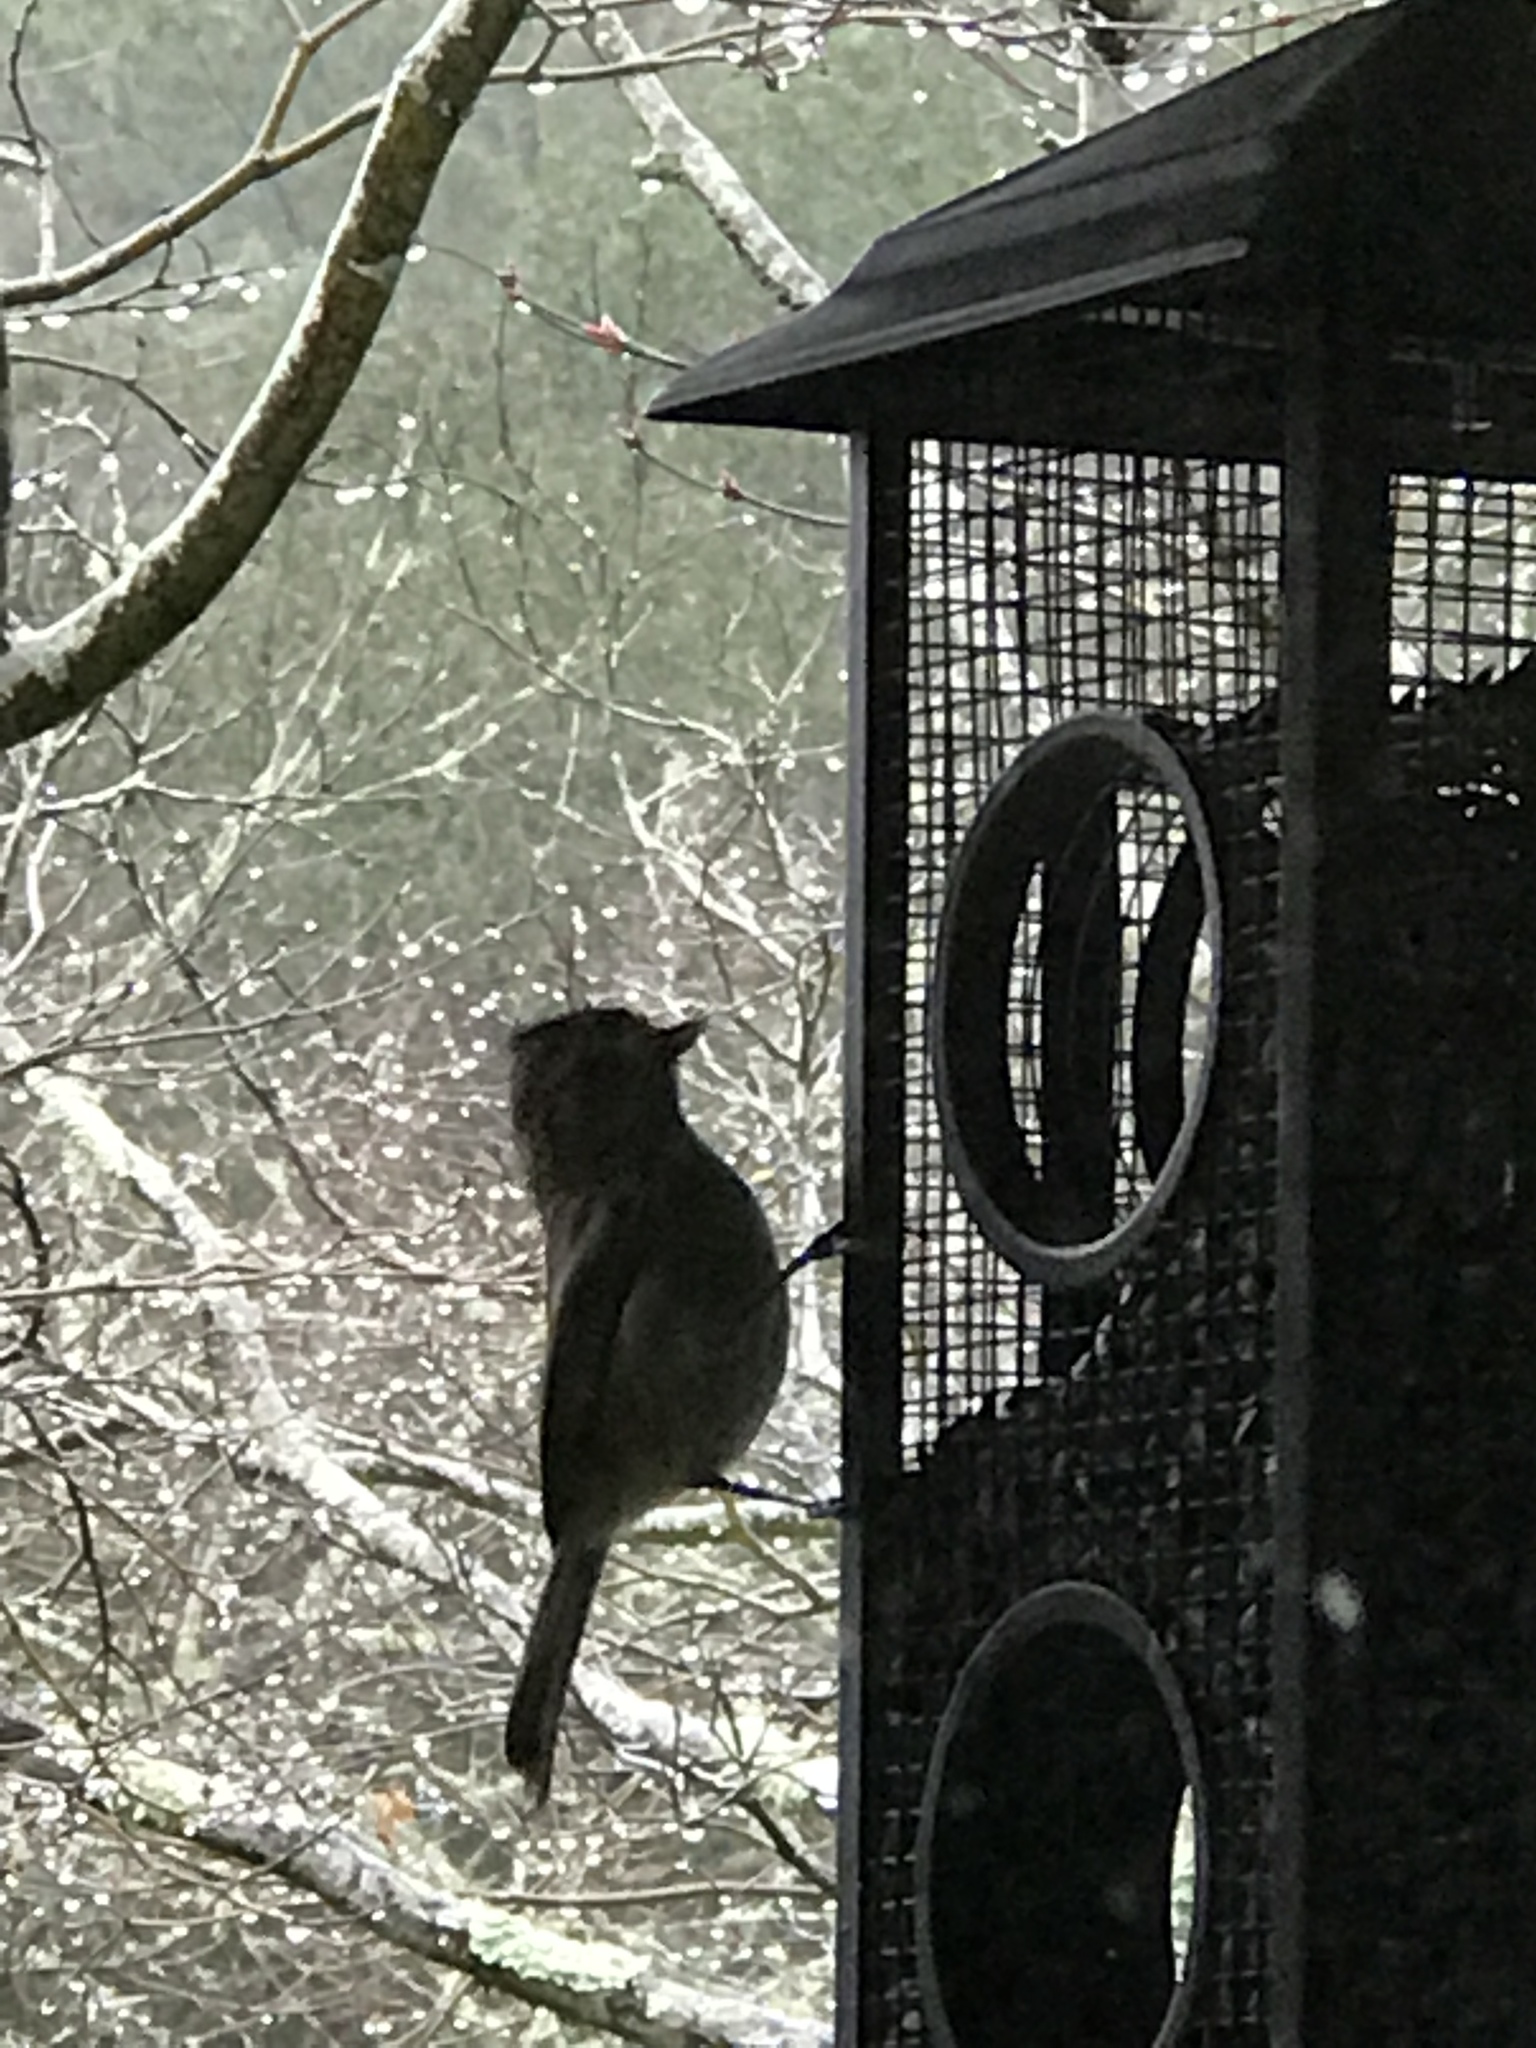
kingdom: Animalia
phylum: Chordata
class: Aves
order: Passeriformes
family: Paridae
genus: Baeolophus
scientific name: Baeolophus inornatus
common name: Oak titmouse
